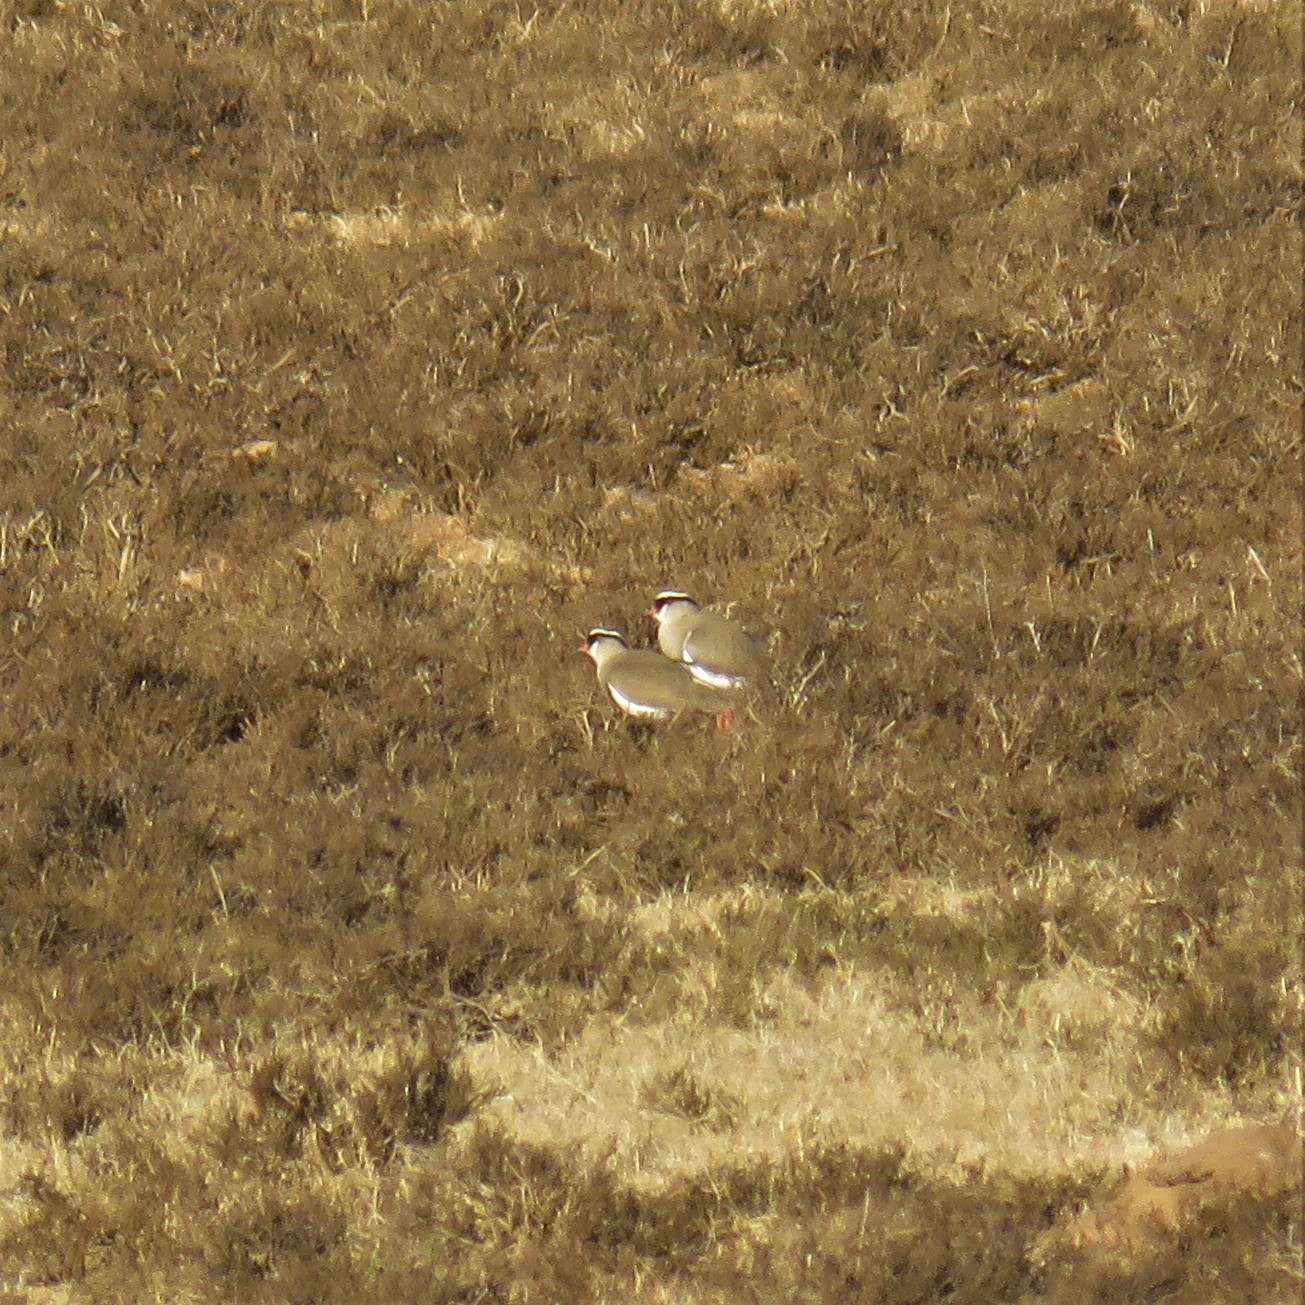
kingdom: Animalia
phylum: Chordata
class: Aves
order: Charadriiformes
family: Charadriidae
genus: Vanellus
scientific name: Vanellus coronatus
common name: Crowned lapwing
